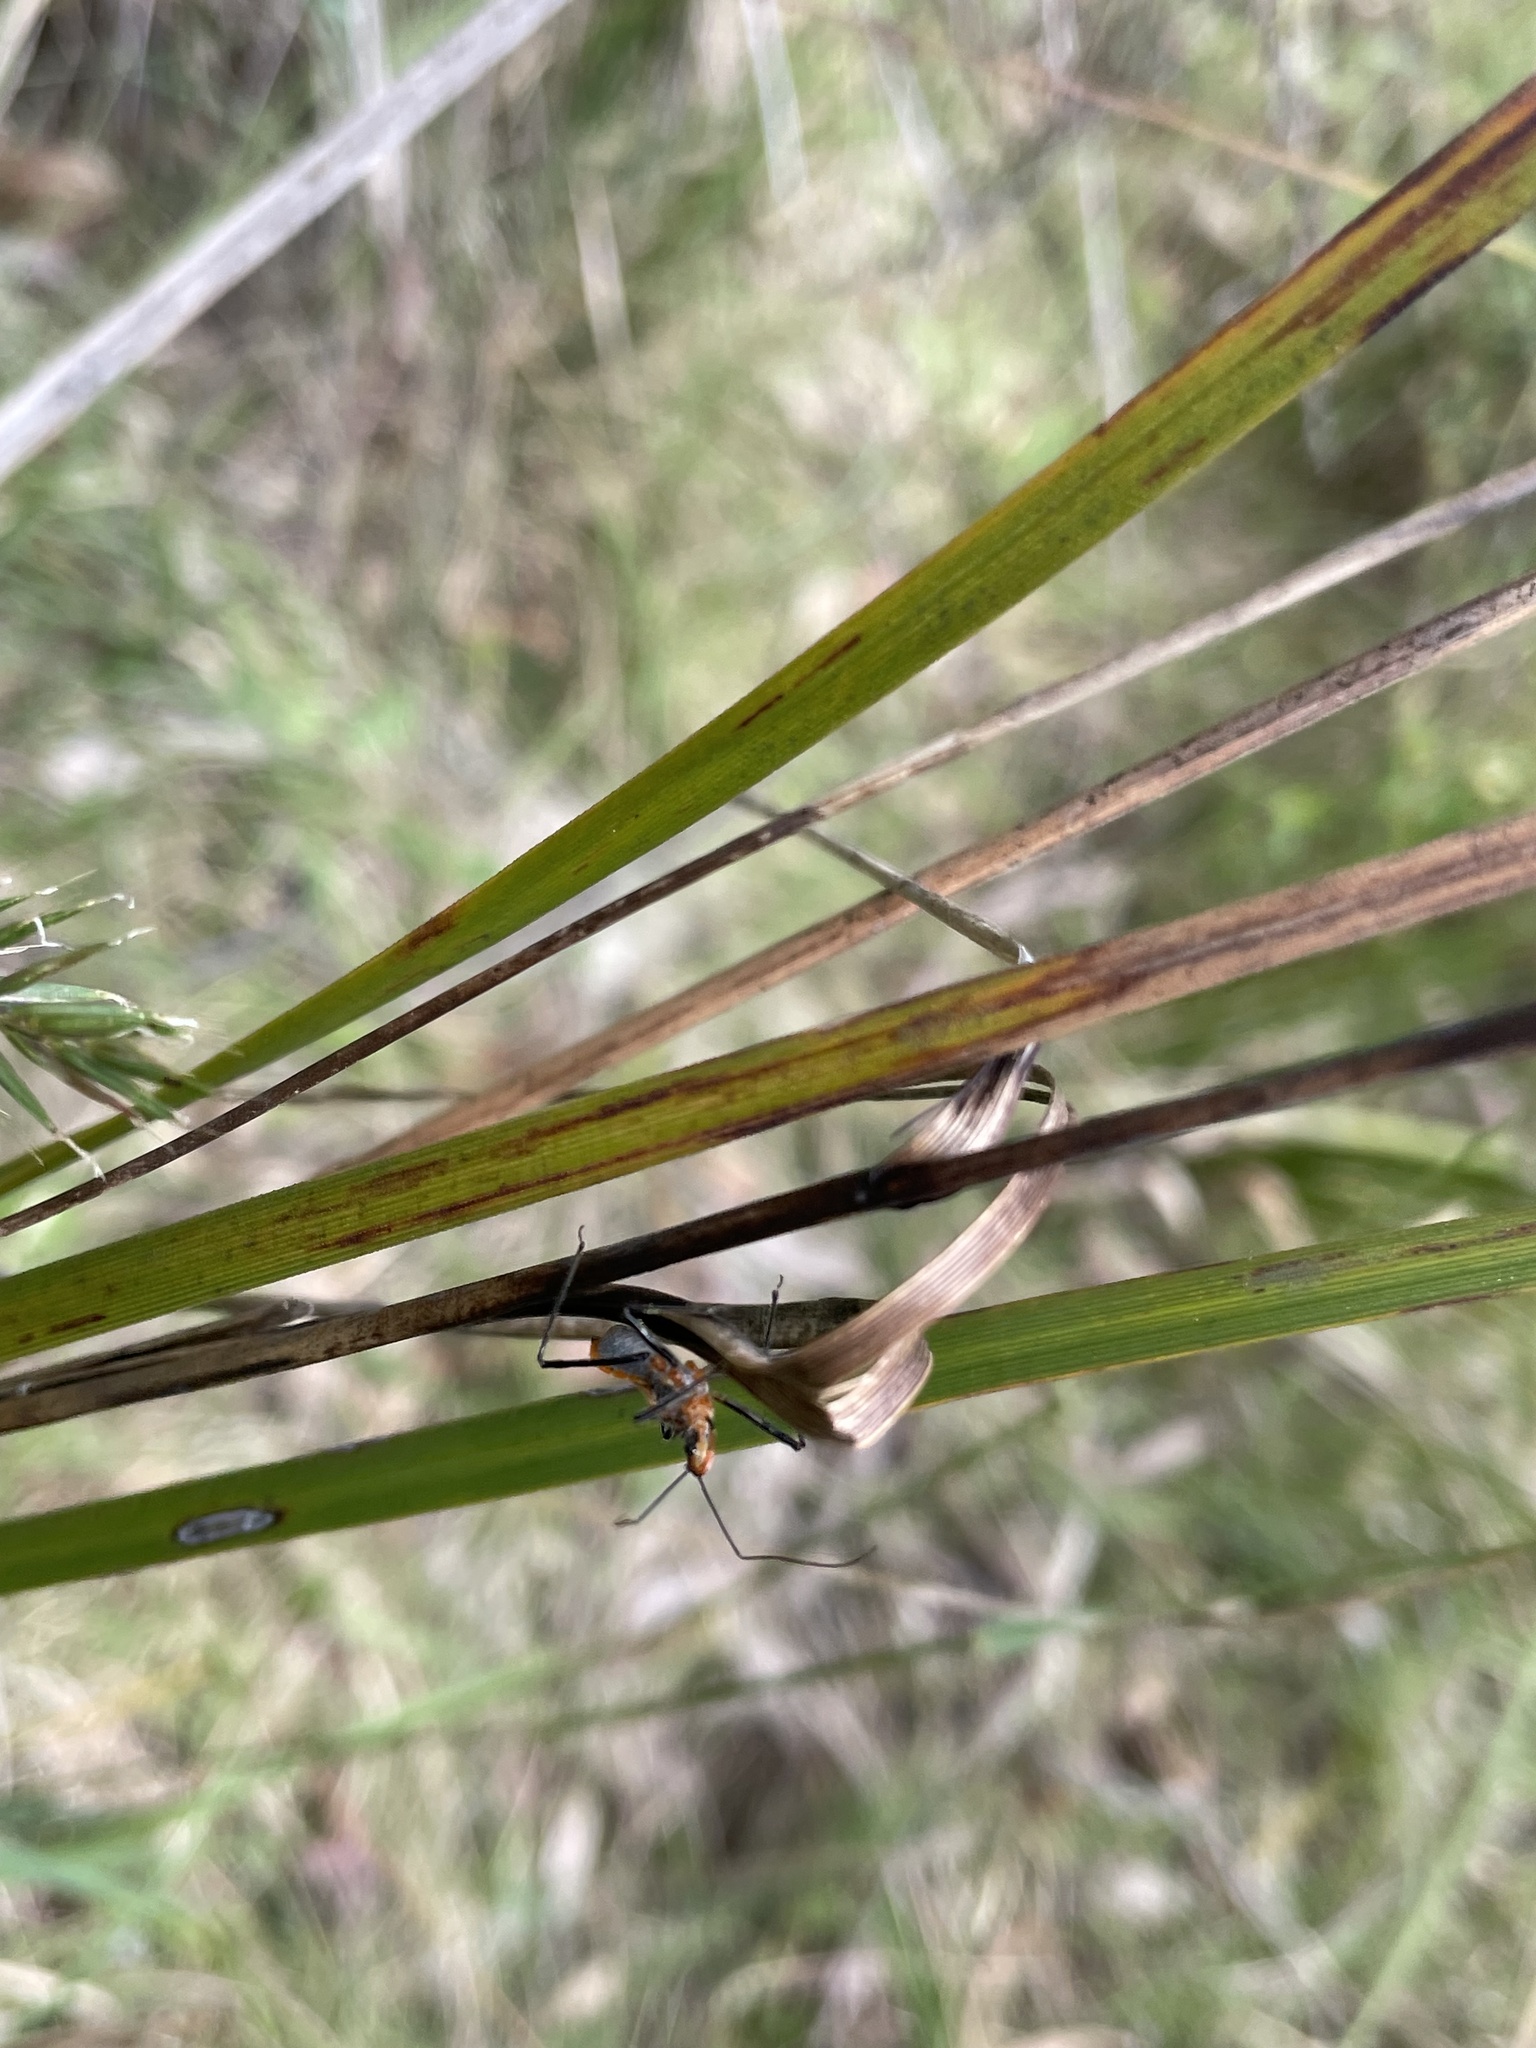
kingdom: Animalia
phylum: Arthropoda
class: Insecta
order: Hemiptera
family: Reduviidae
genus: Gminatus
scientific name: Gminatus australis
